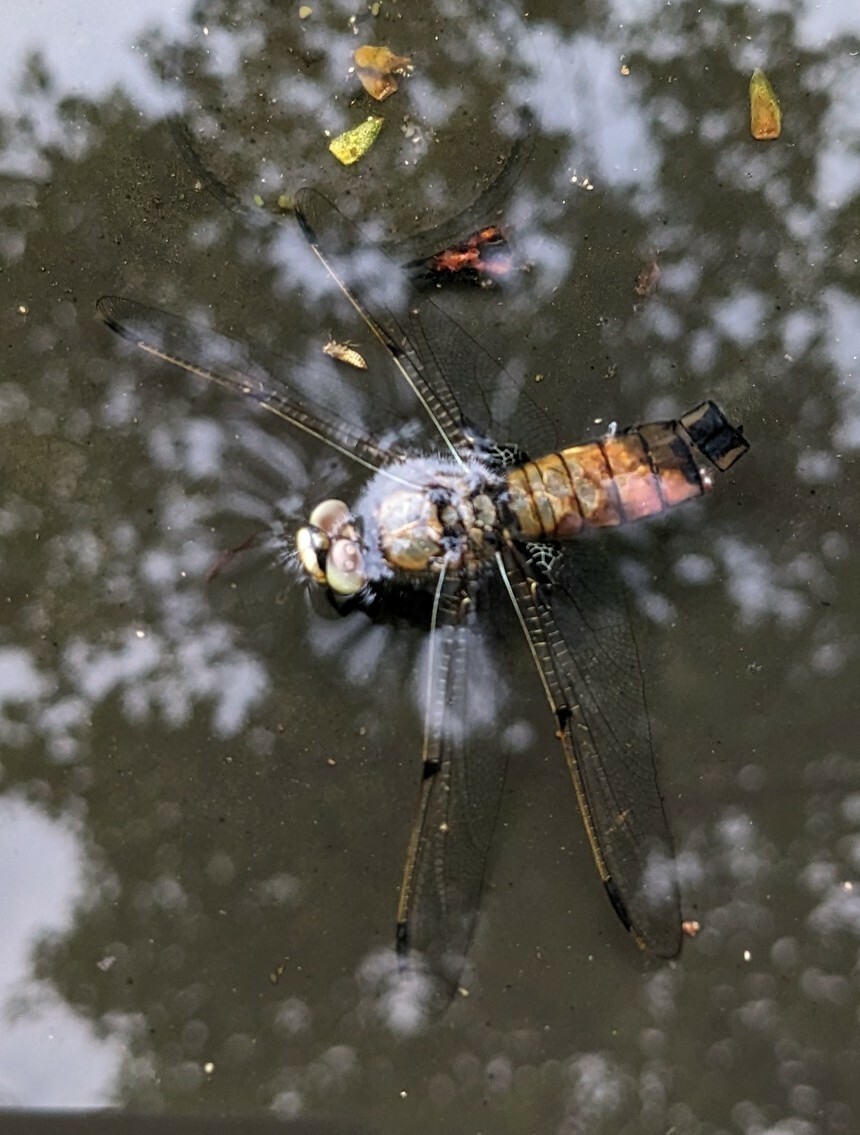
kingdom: Animalia
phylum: Arthropoda
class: Insecta
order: Odonata
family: Libellulidae
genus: Libellula
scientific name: Libellula quadrimaculata
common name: Four-spotted chaser
